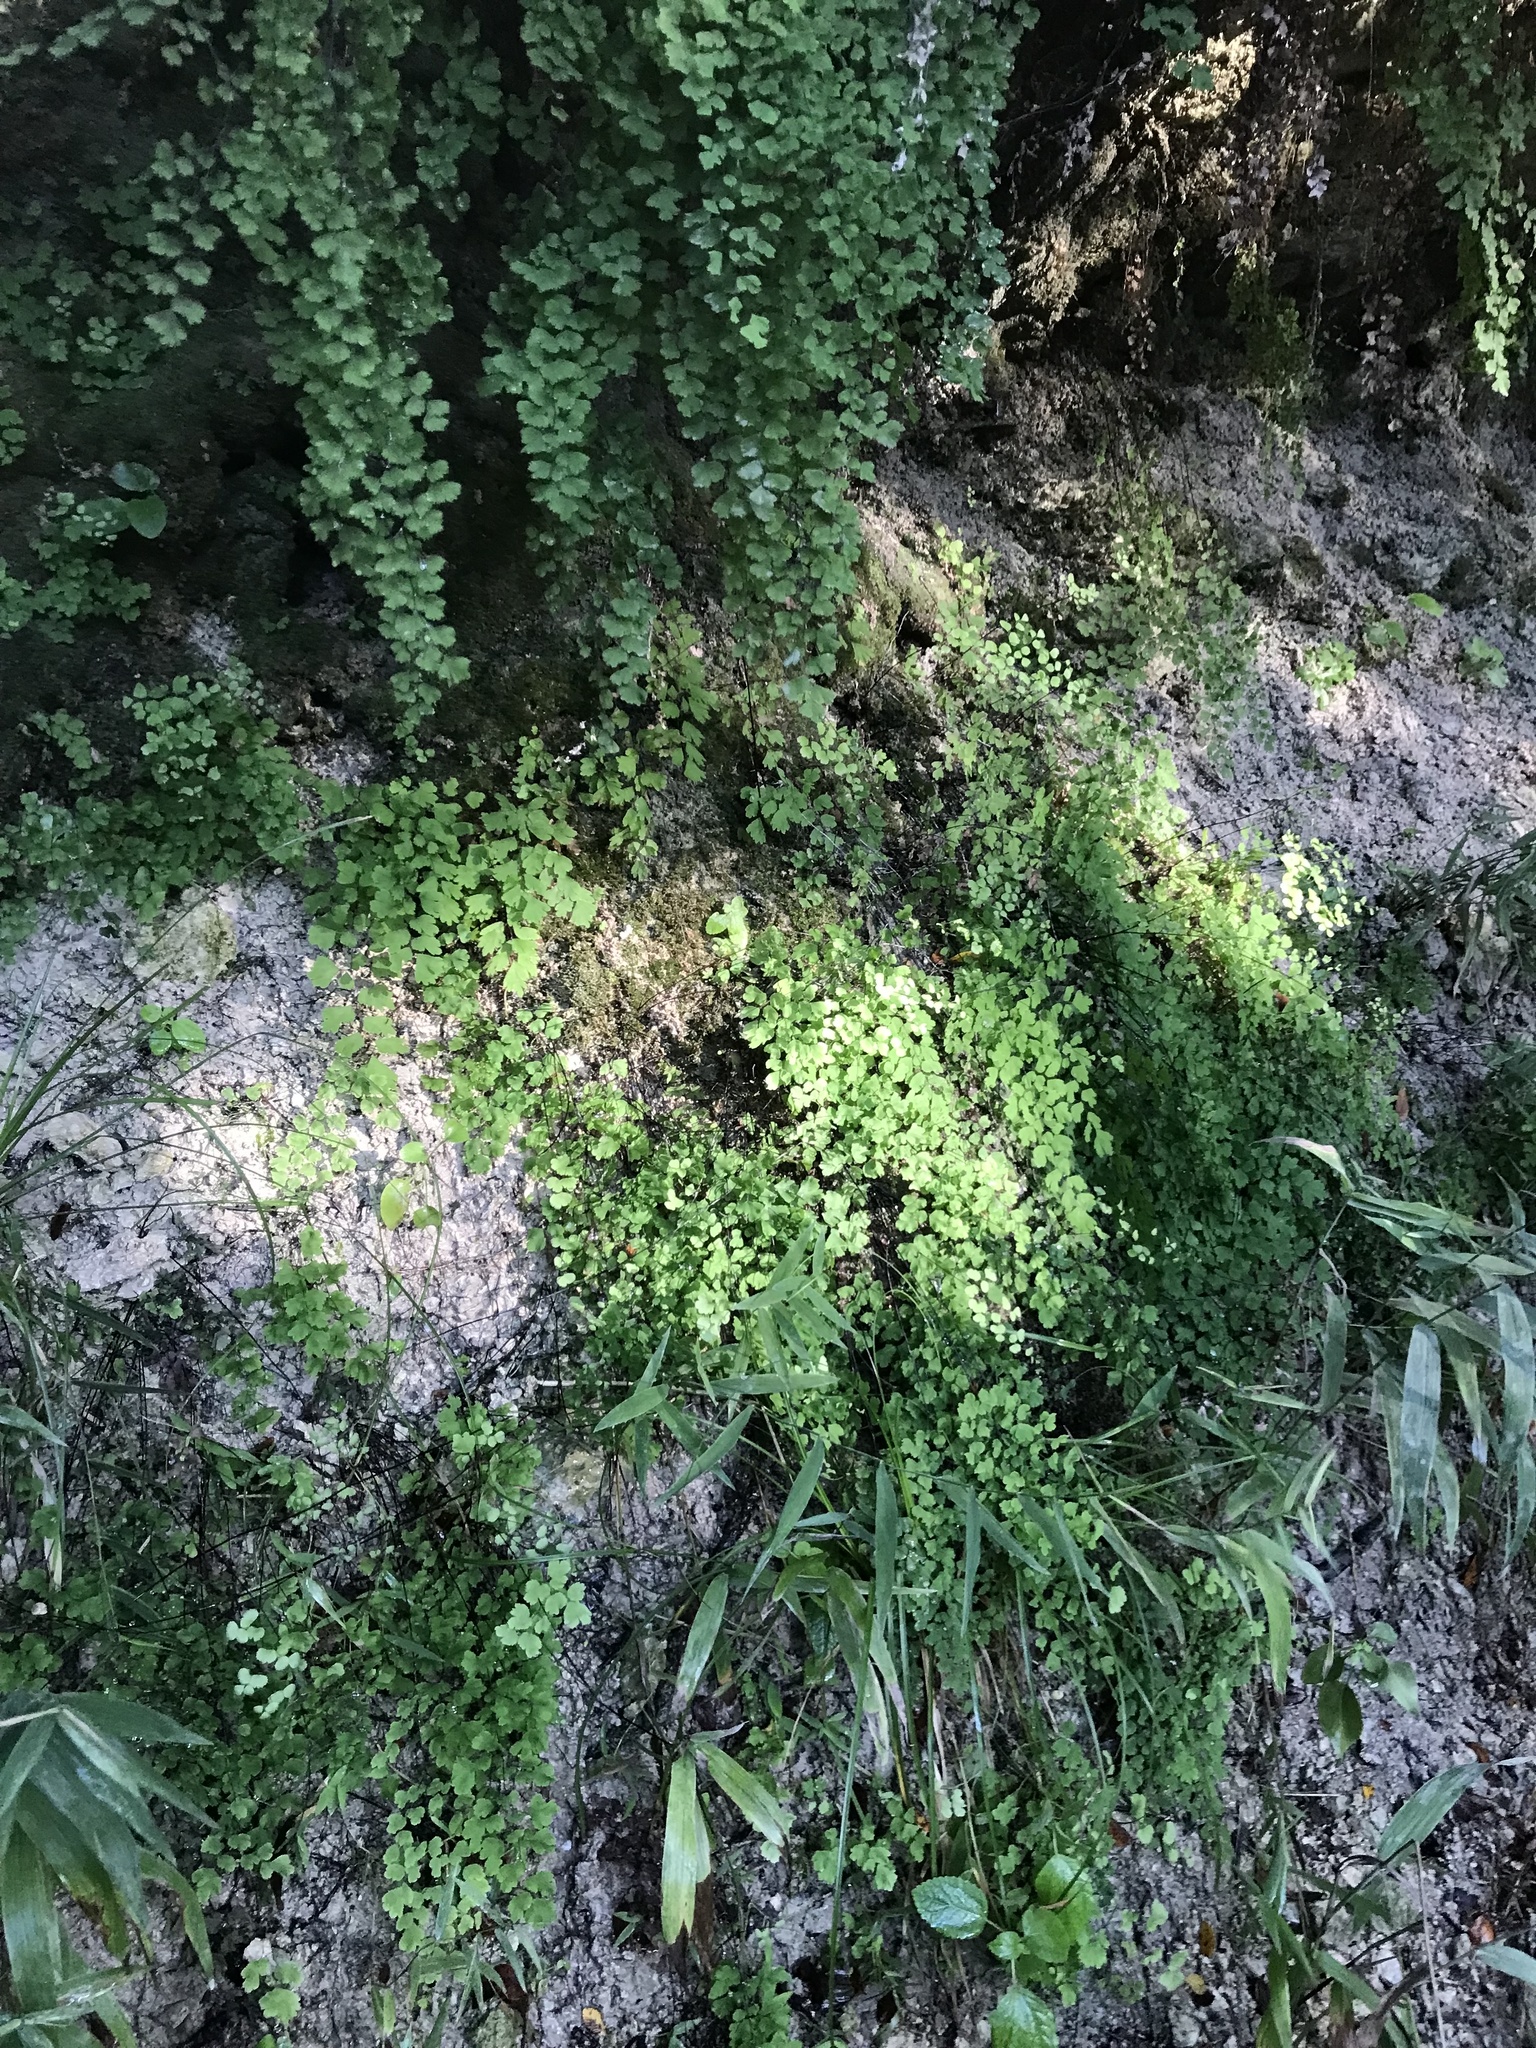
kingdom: Plantae
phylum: Tracheophyta
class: Polypodiopsida
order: Polypodiales
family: Pteridaceae
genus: Adiantum
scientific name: Adiantum capillus-veneris
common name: Maidenhair fern
